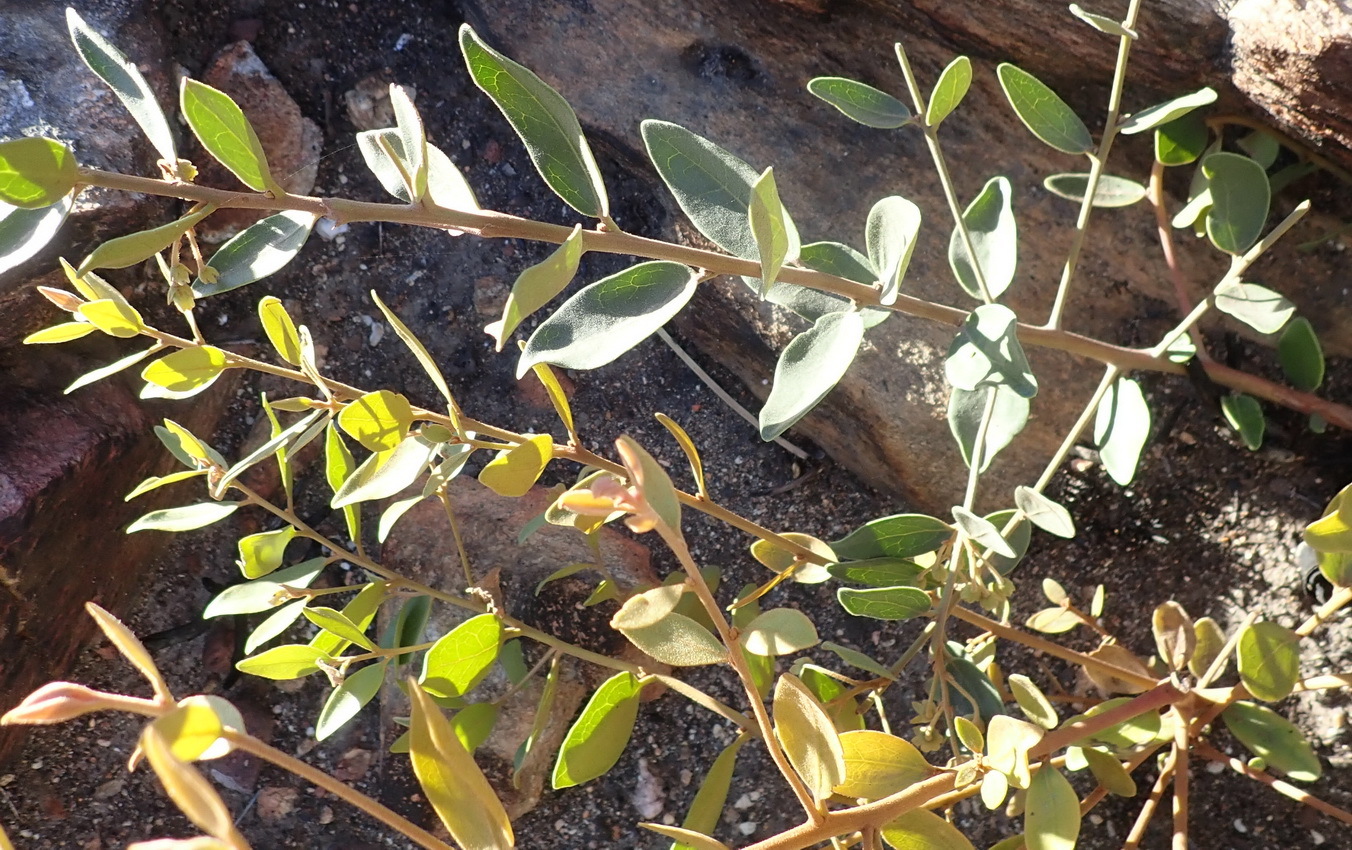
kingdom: Plantae
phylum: Tracheophyta
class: Magnoliopsida
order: Ericales
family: Ebenaceae
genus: Euclea
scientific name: Euclea polyandra
